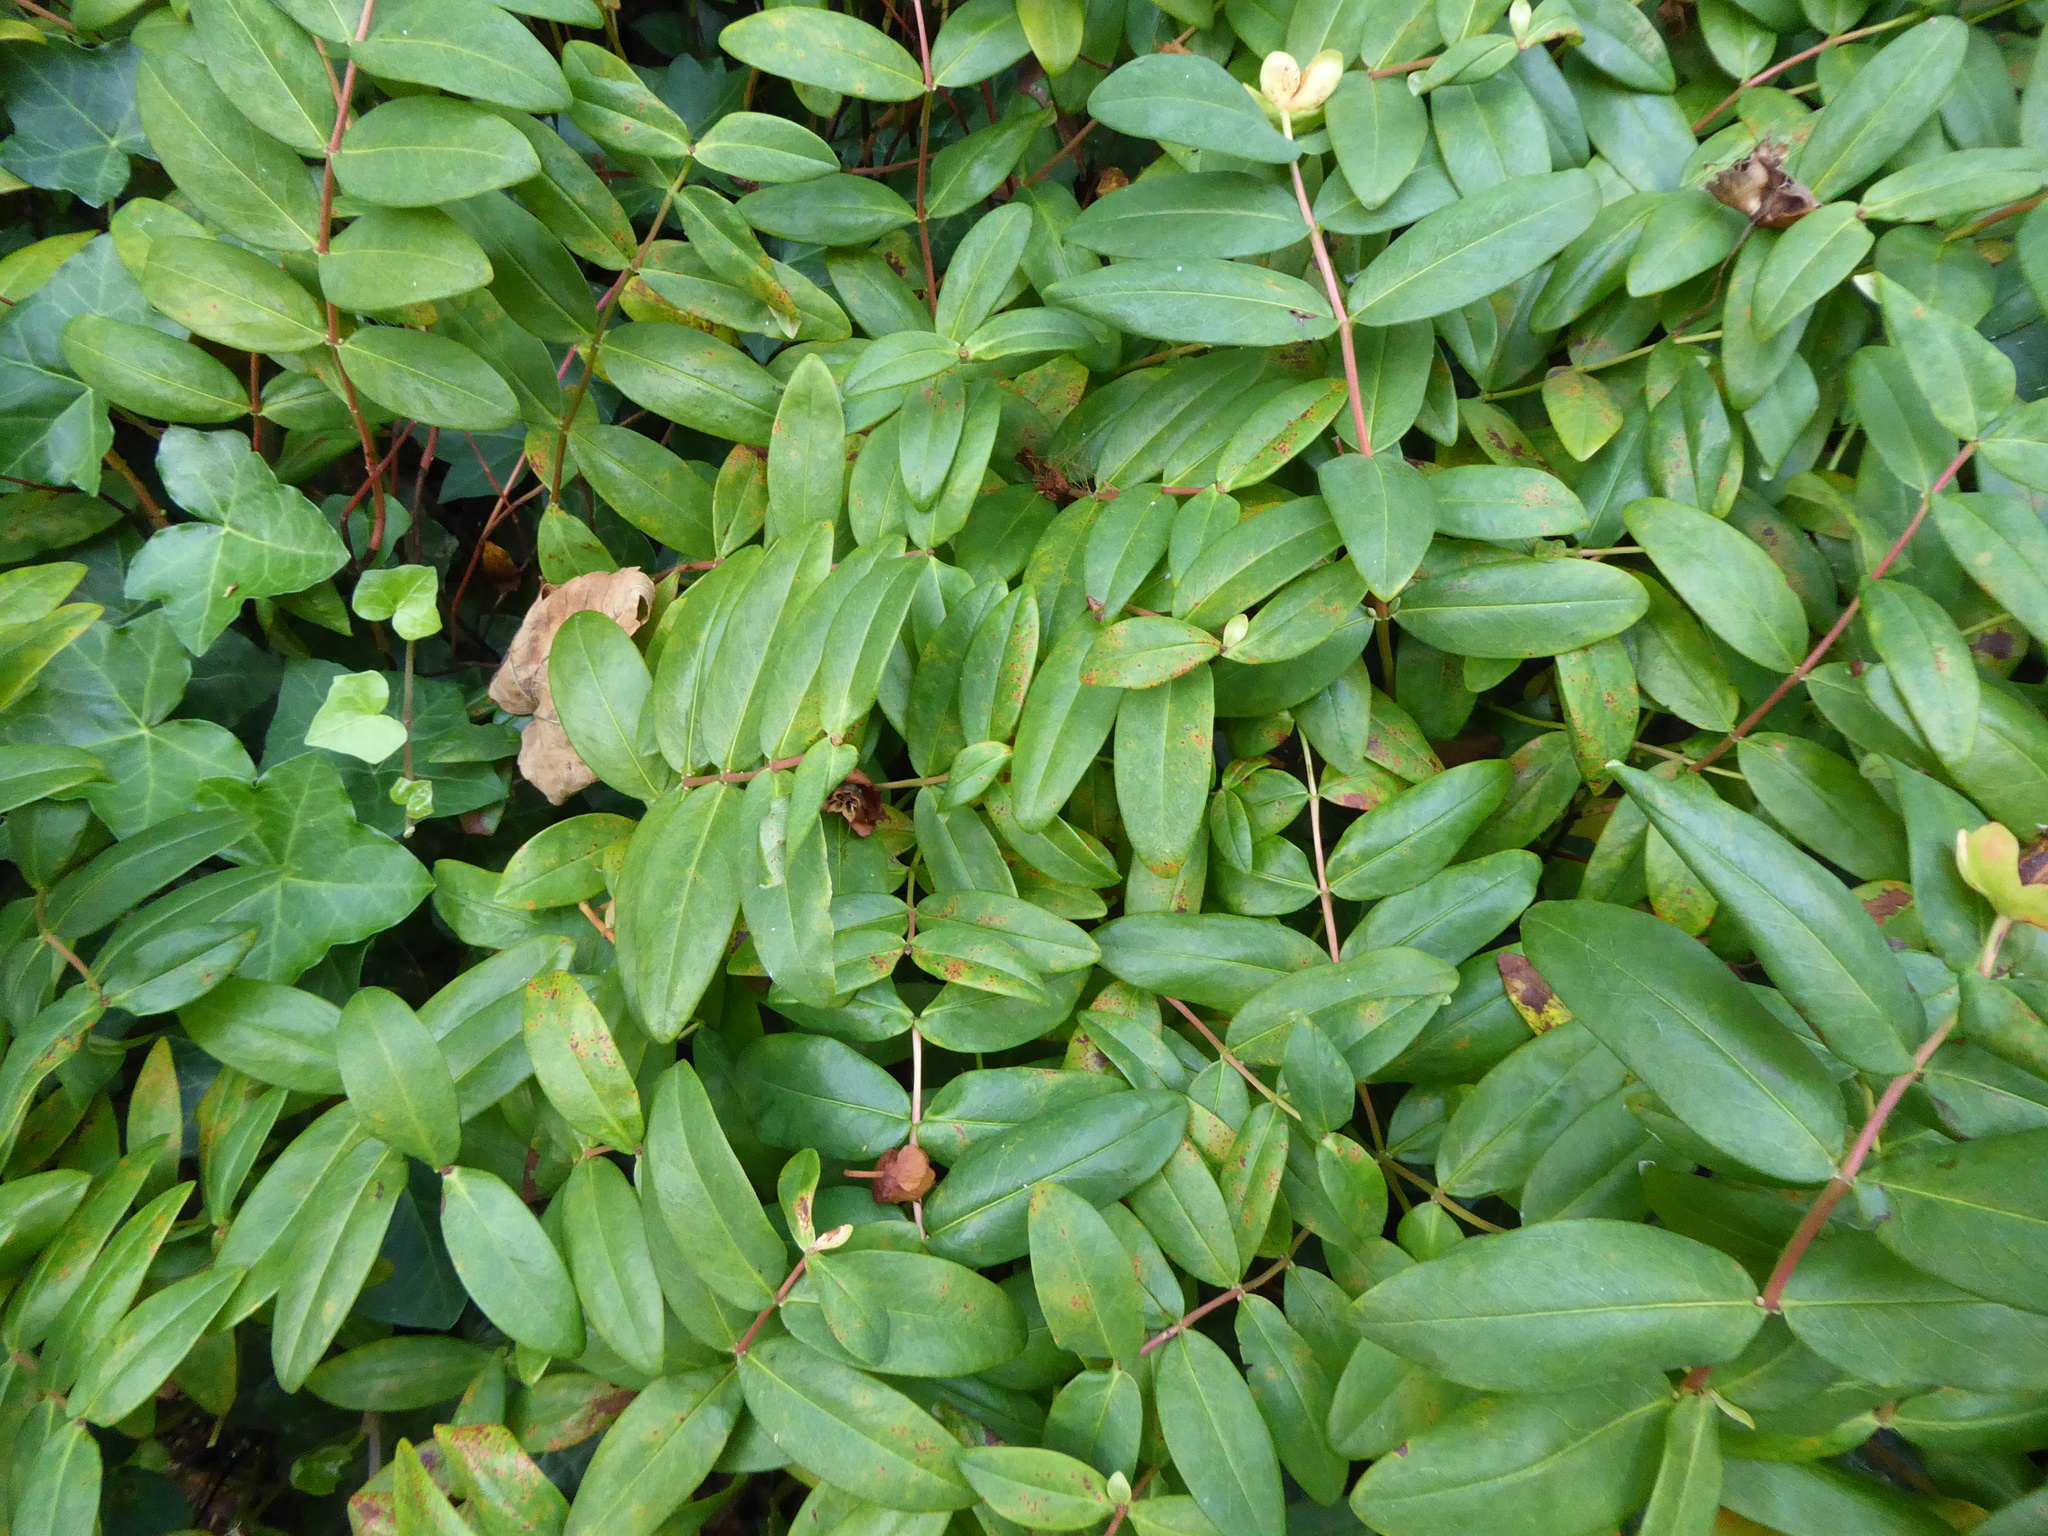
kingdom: Plantae
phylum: Tracheophyta
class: Magnoliopsida
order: Malpighiales
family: Hypericaceae
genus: Hypericum
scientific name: Hypericum calycinum
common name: Rose-of-sharon
